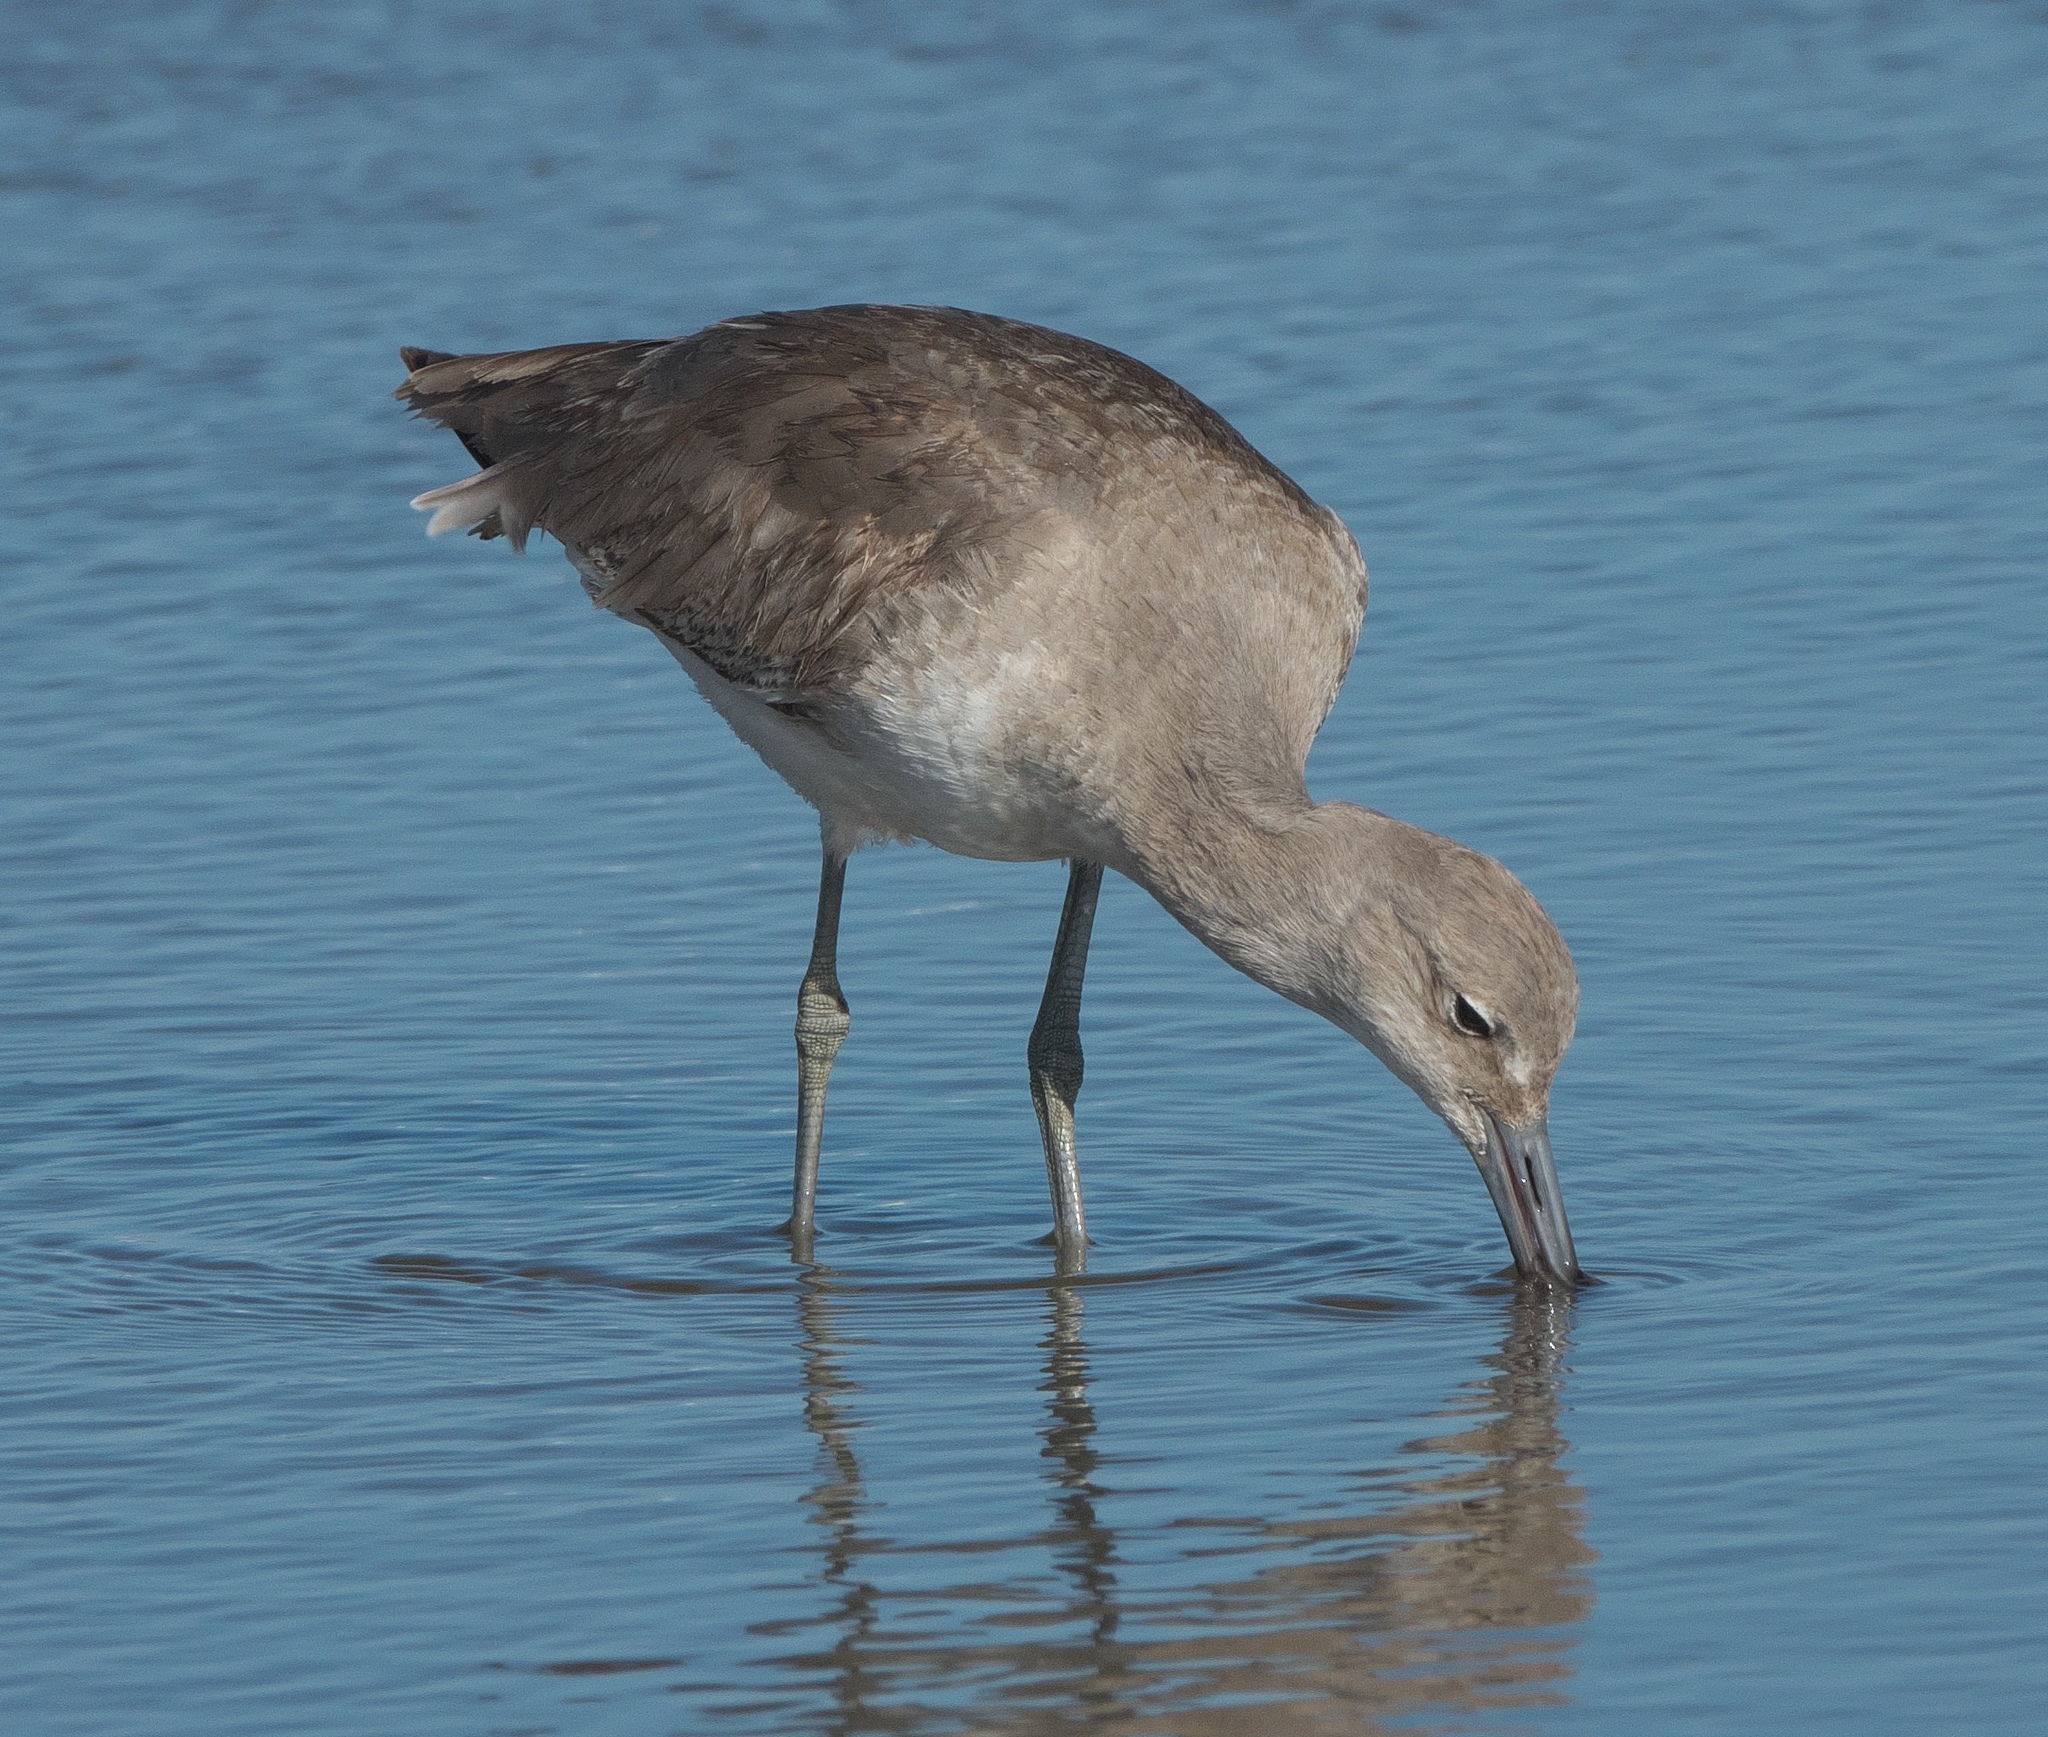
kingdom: Animalia
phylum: Chordata
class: Aves
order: Charadriiformes
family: Scolopacidae
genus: Tringa
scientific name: Tringa semipalmata
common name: Willet
